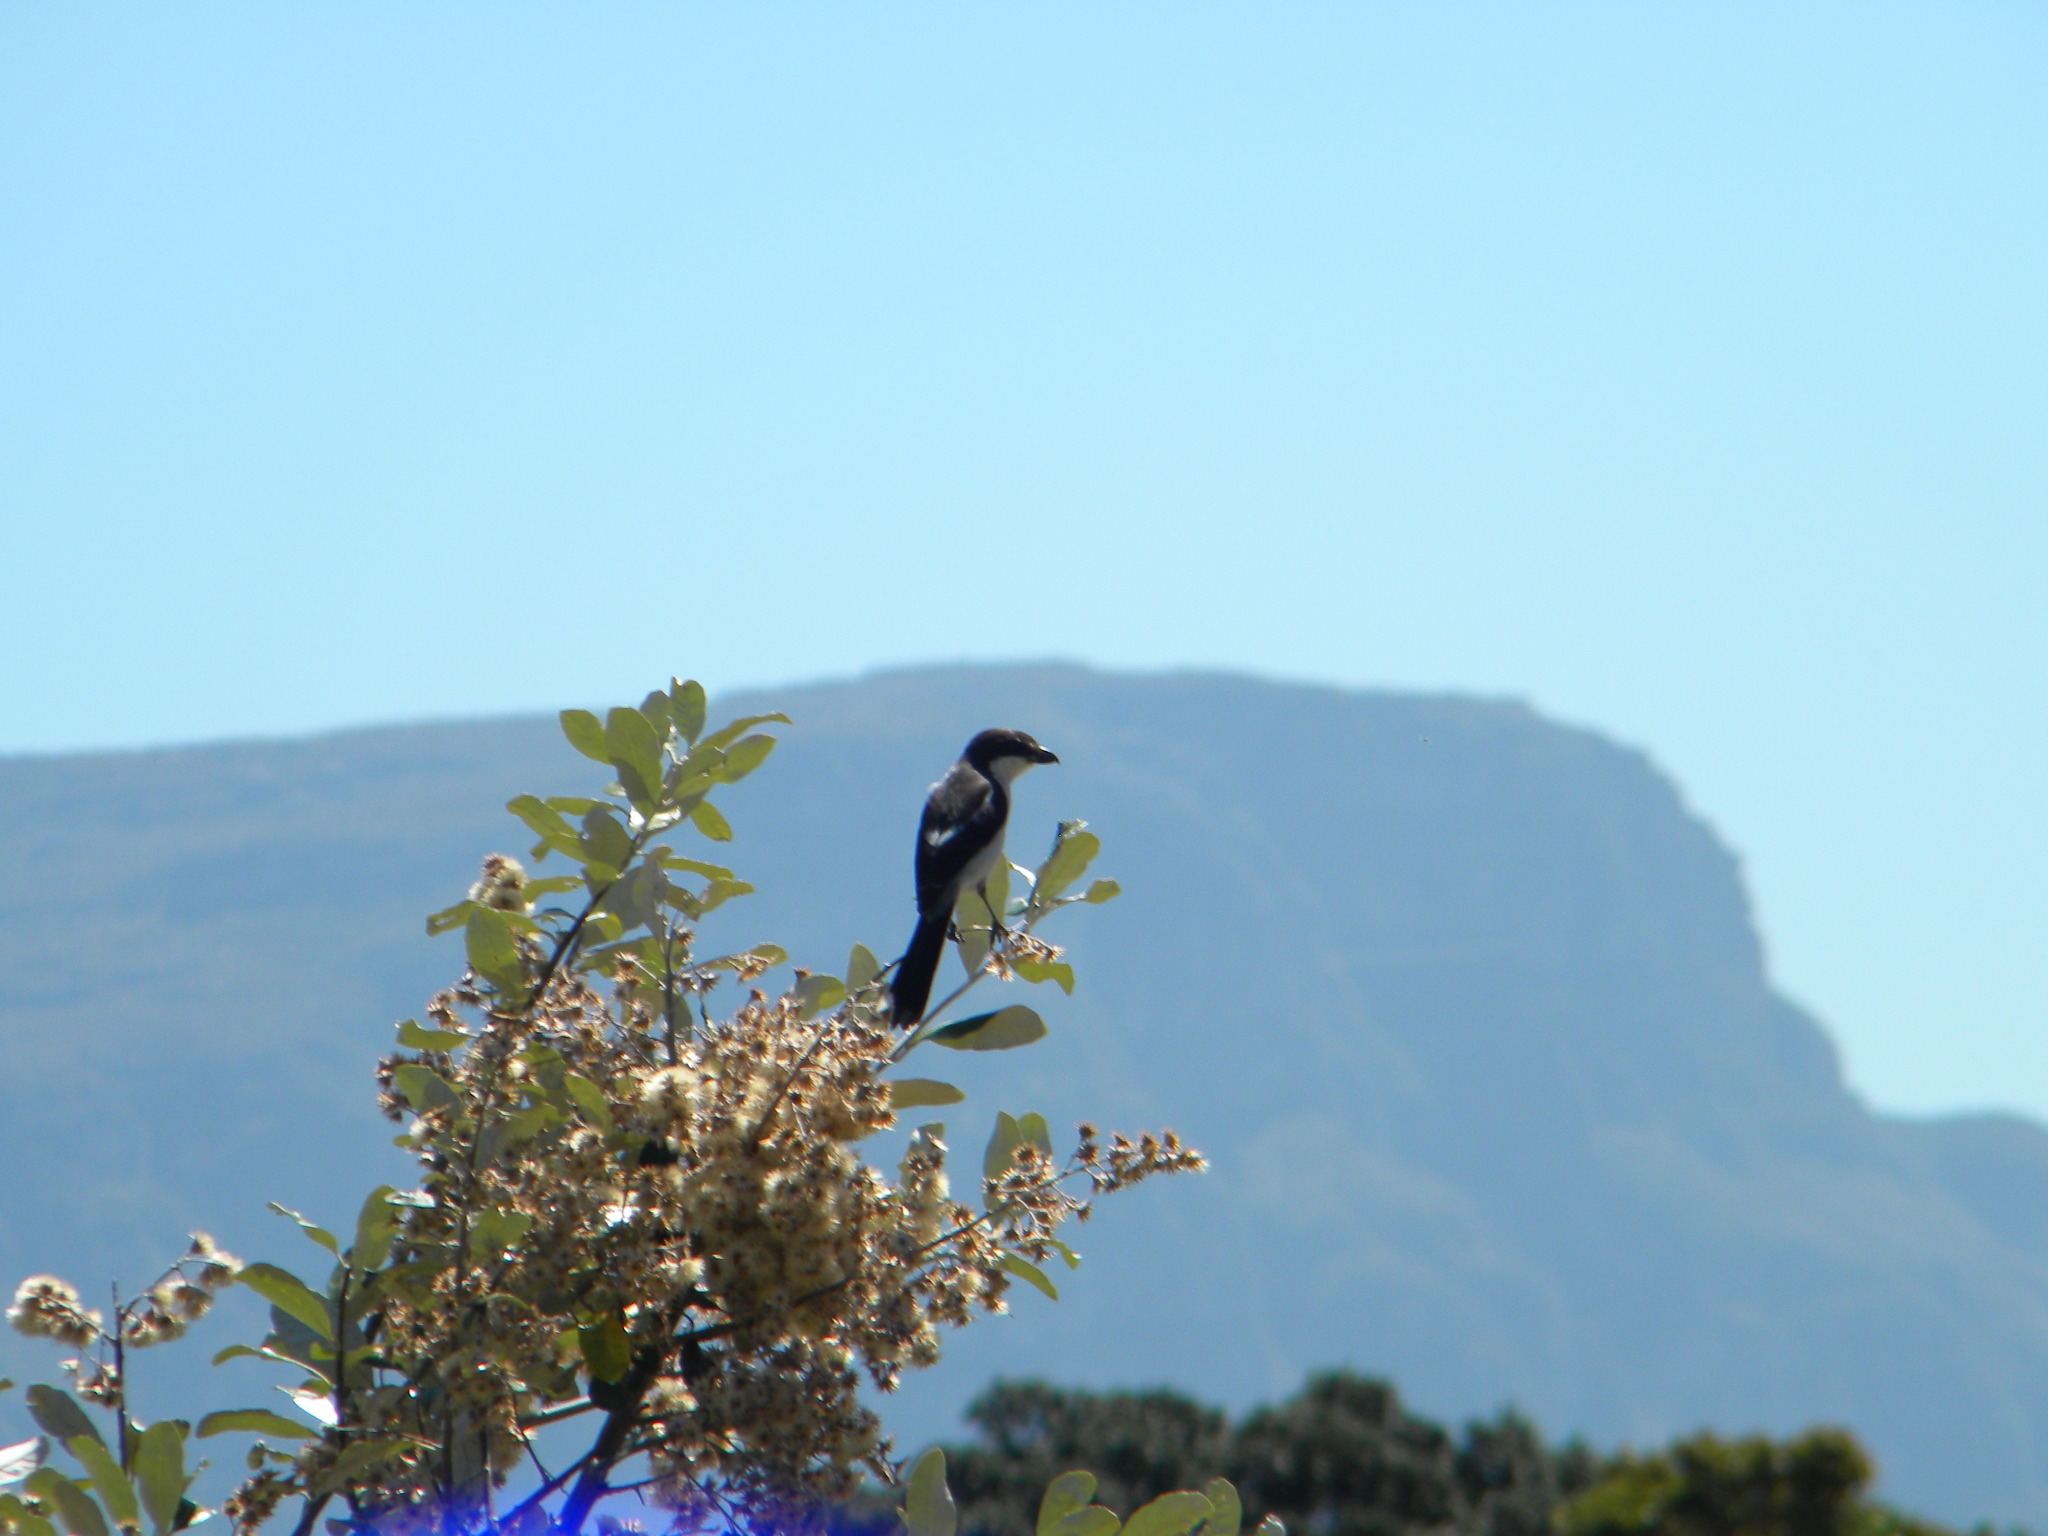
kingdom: Animalia
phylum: Chordata
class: Aves
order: Passeriformes
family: Laniidae
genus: Lanius
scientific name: Lanius collaris
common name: Southern fiscal
